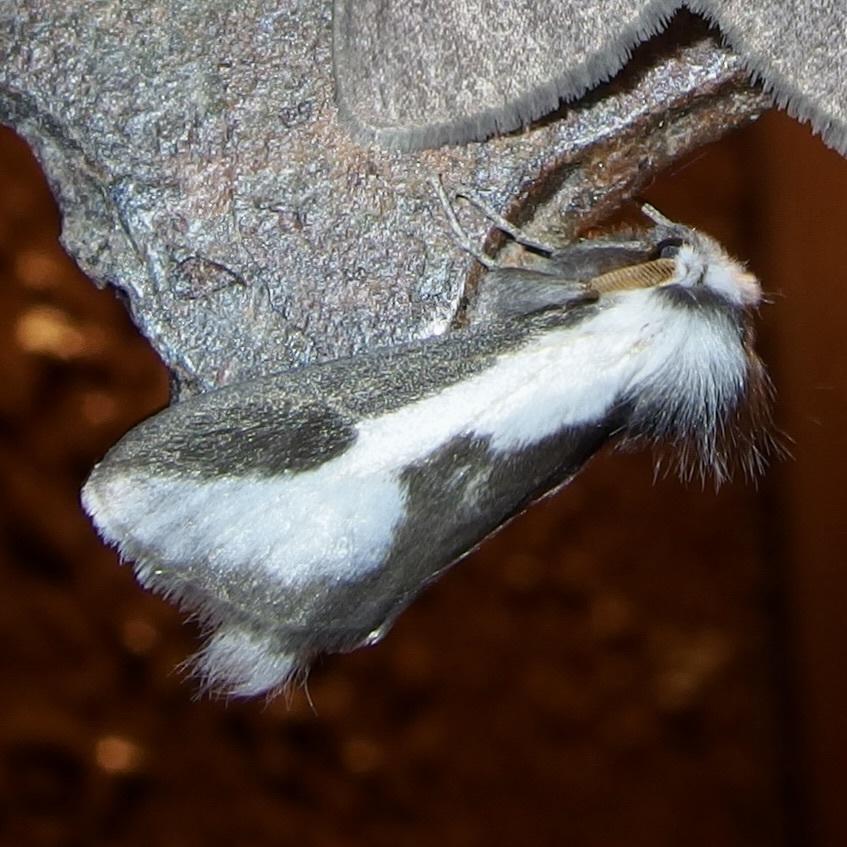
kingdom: Animalia
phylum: Arthropoda
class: Insecta
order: Lepidoptera
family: Megalopygidae
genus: Norape
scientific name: Norape tener
